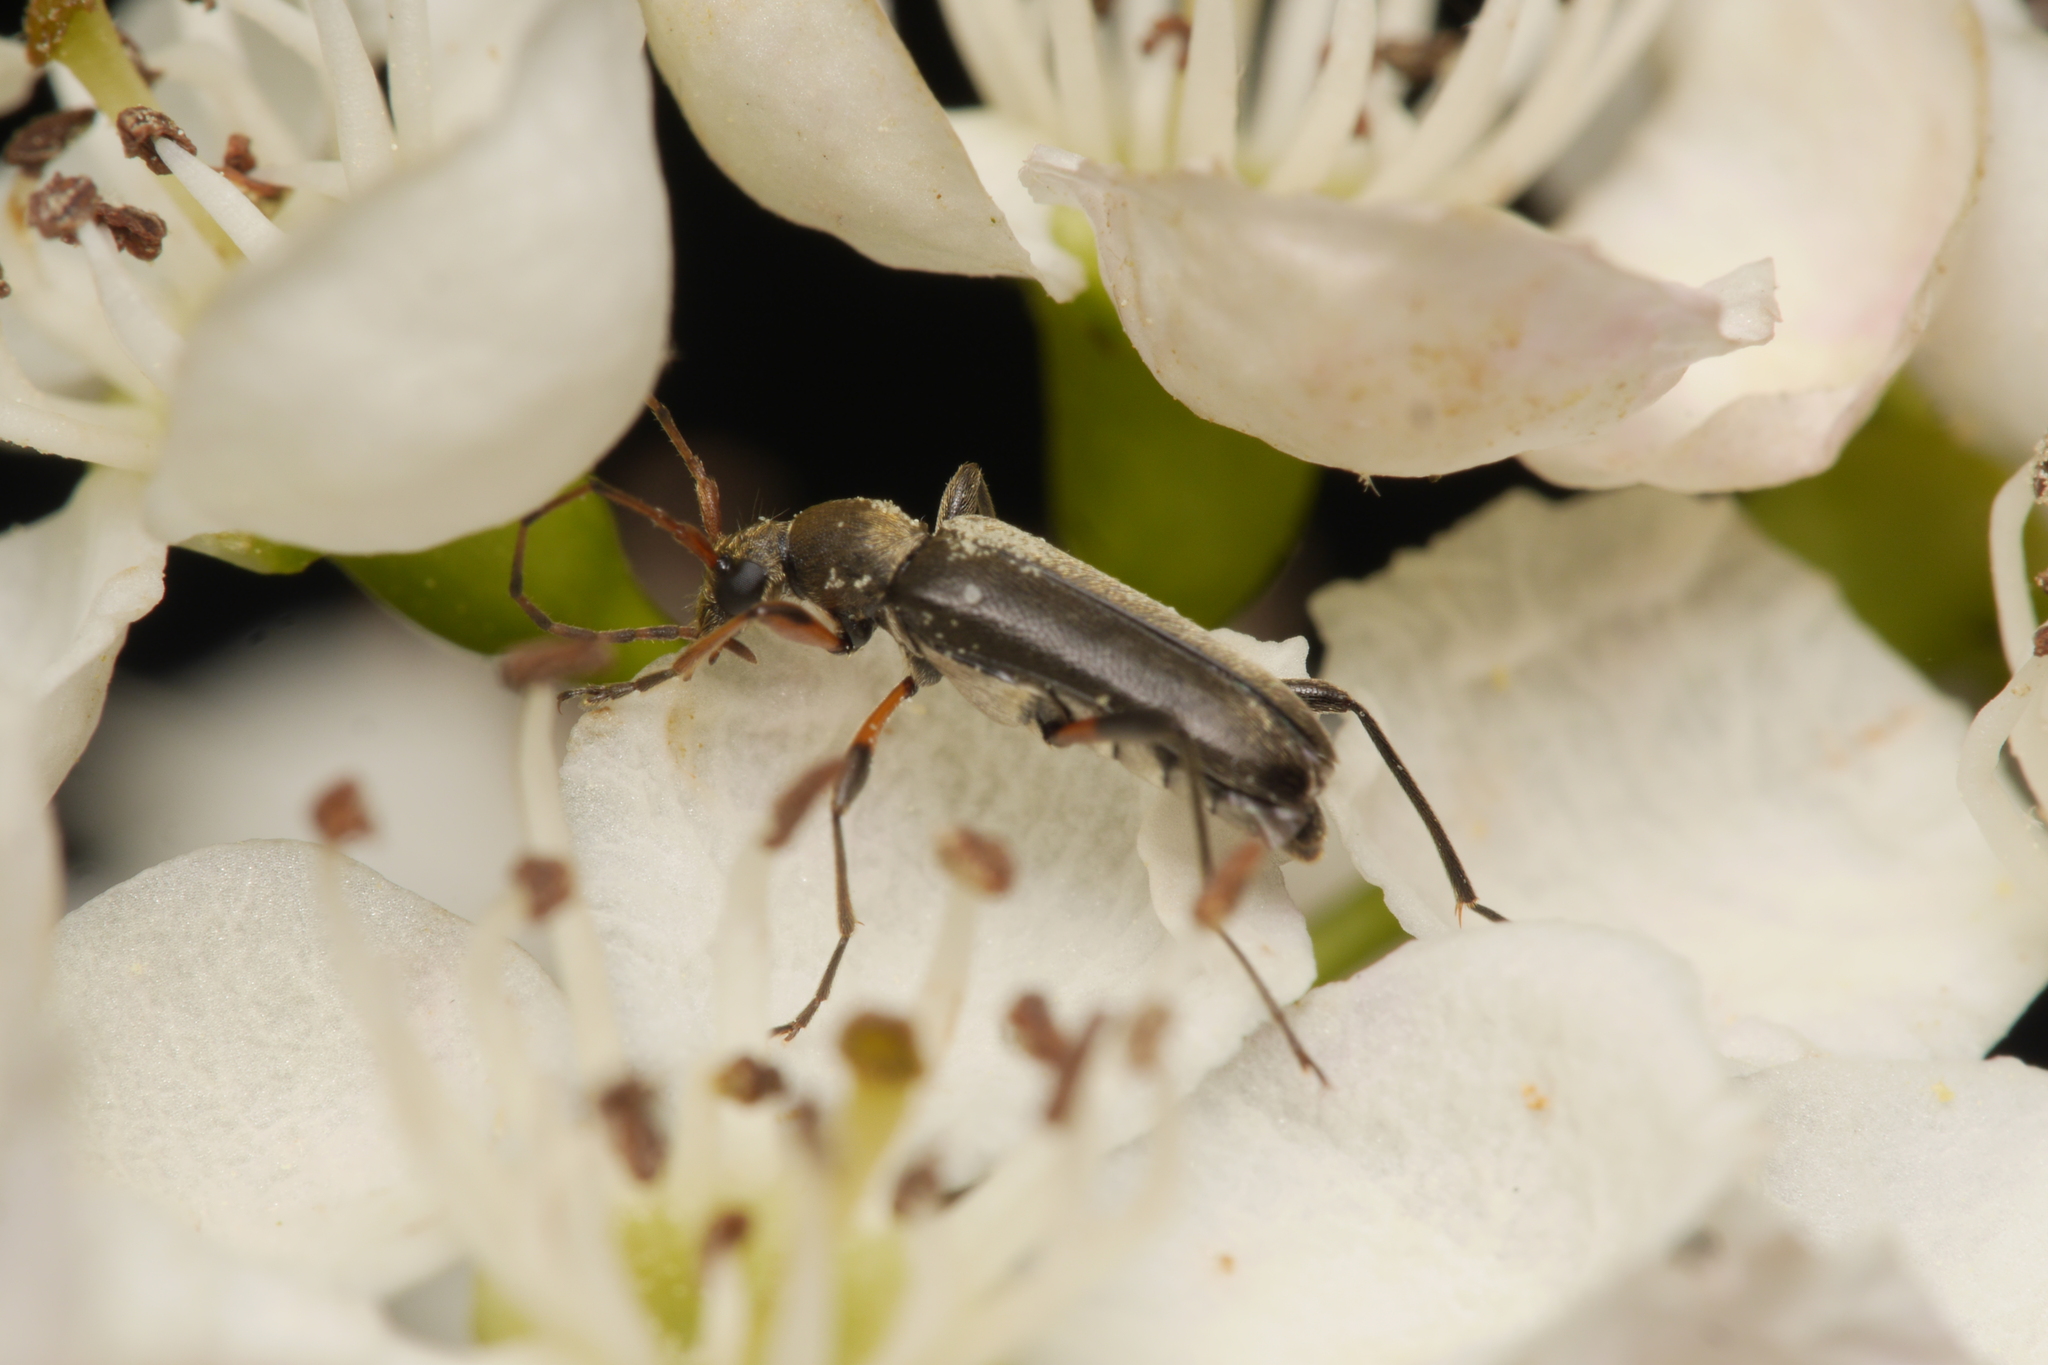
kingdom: Animalia
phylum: Arthropoda
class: Insecta
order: Coleoptera
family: Cerambycidae
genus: Grammoptera
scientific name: Grammoptera ruficornis
